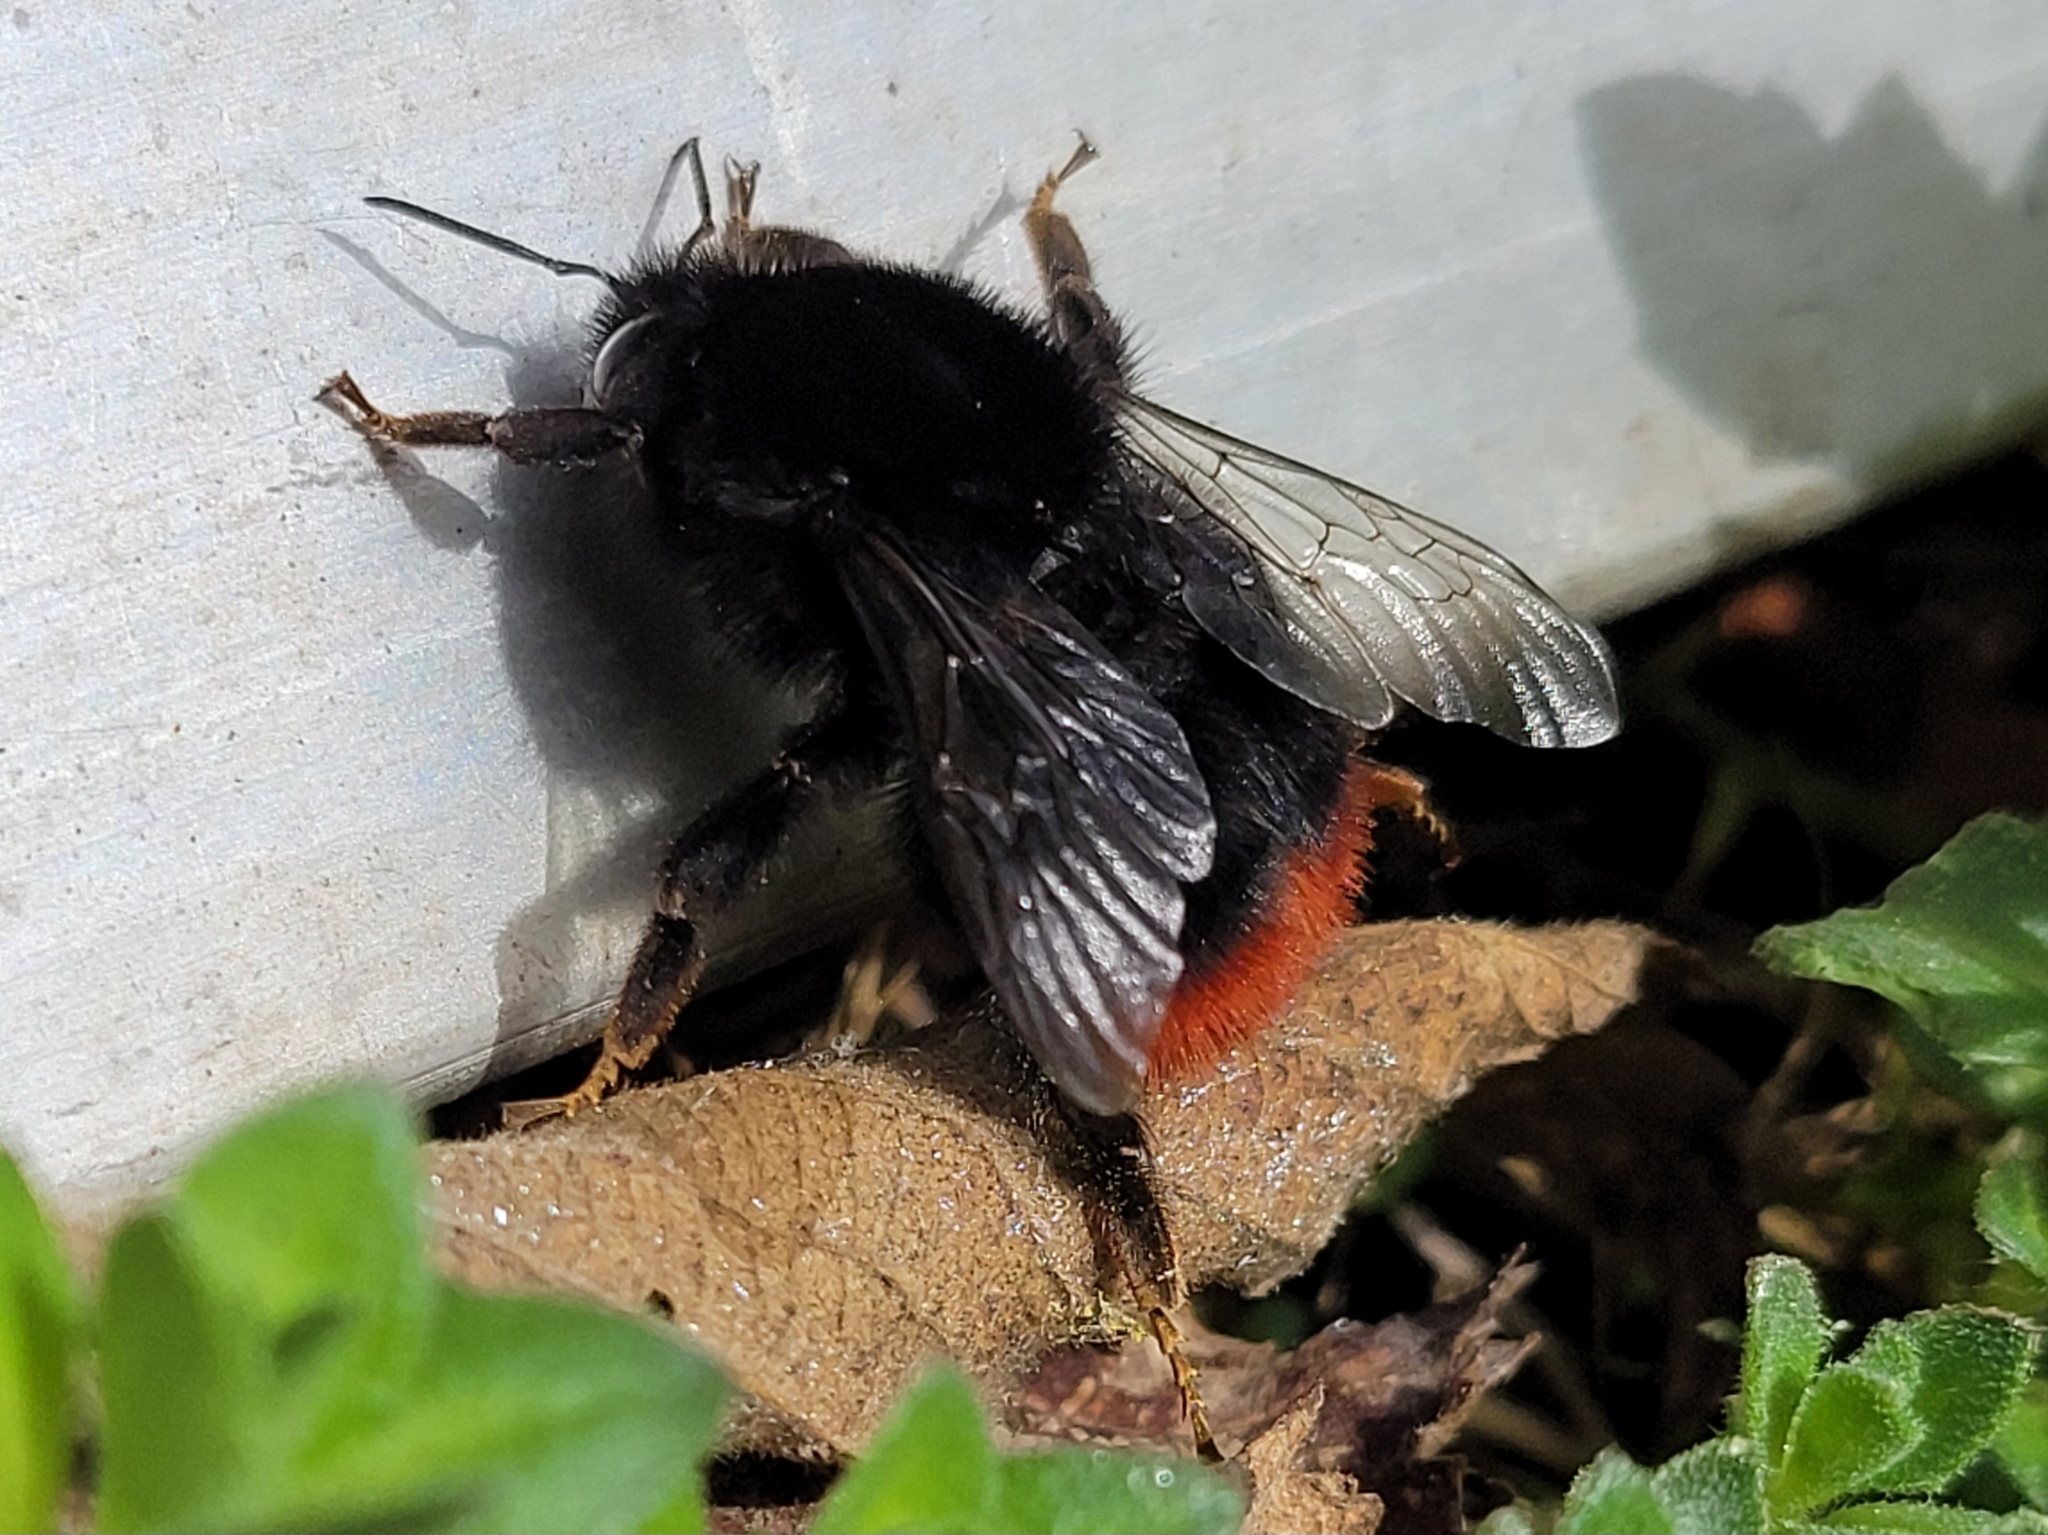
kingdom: Animalia
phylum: Arthropoda
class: Insecta
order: Hymenoptera
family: Apidae
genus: Bombus
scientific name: Bombus lapidarius
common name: Large red-tailed humble-bee
